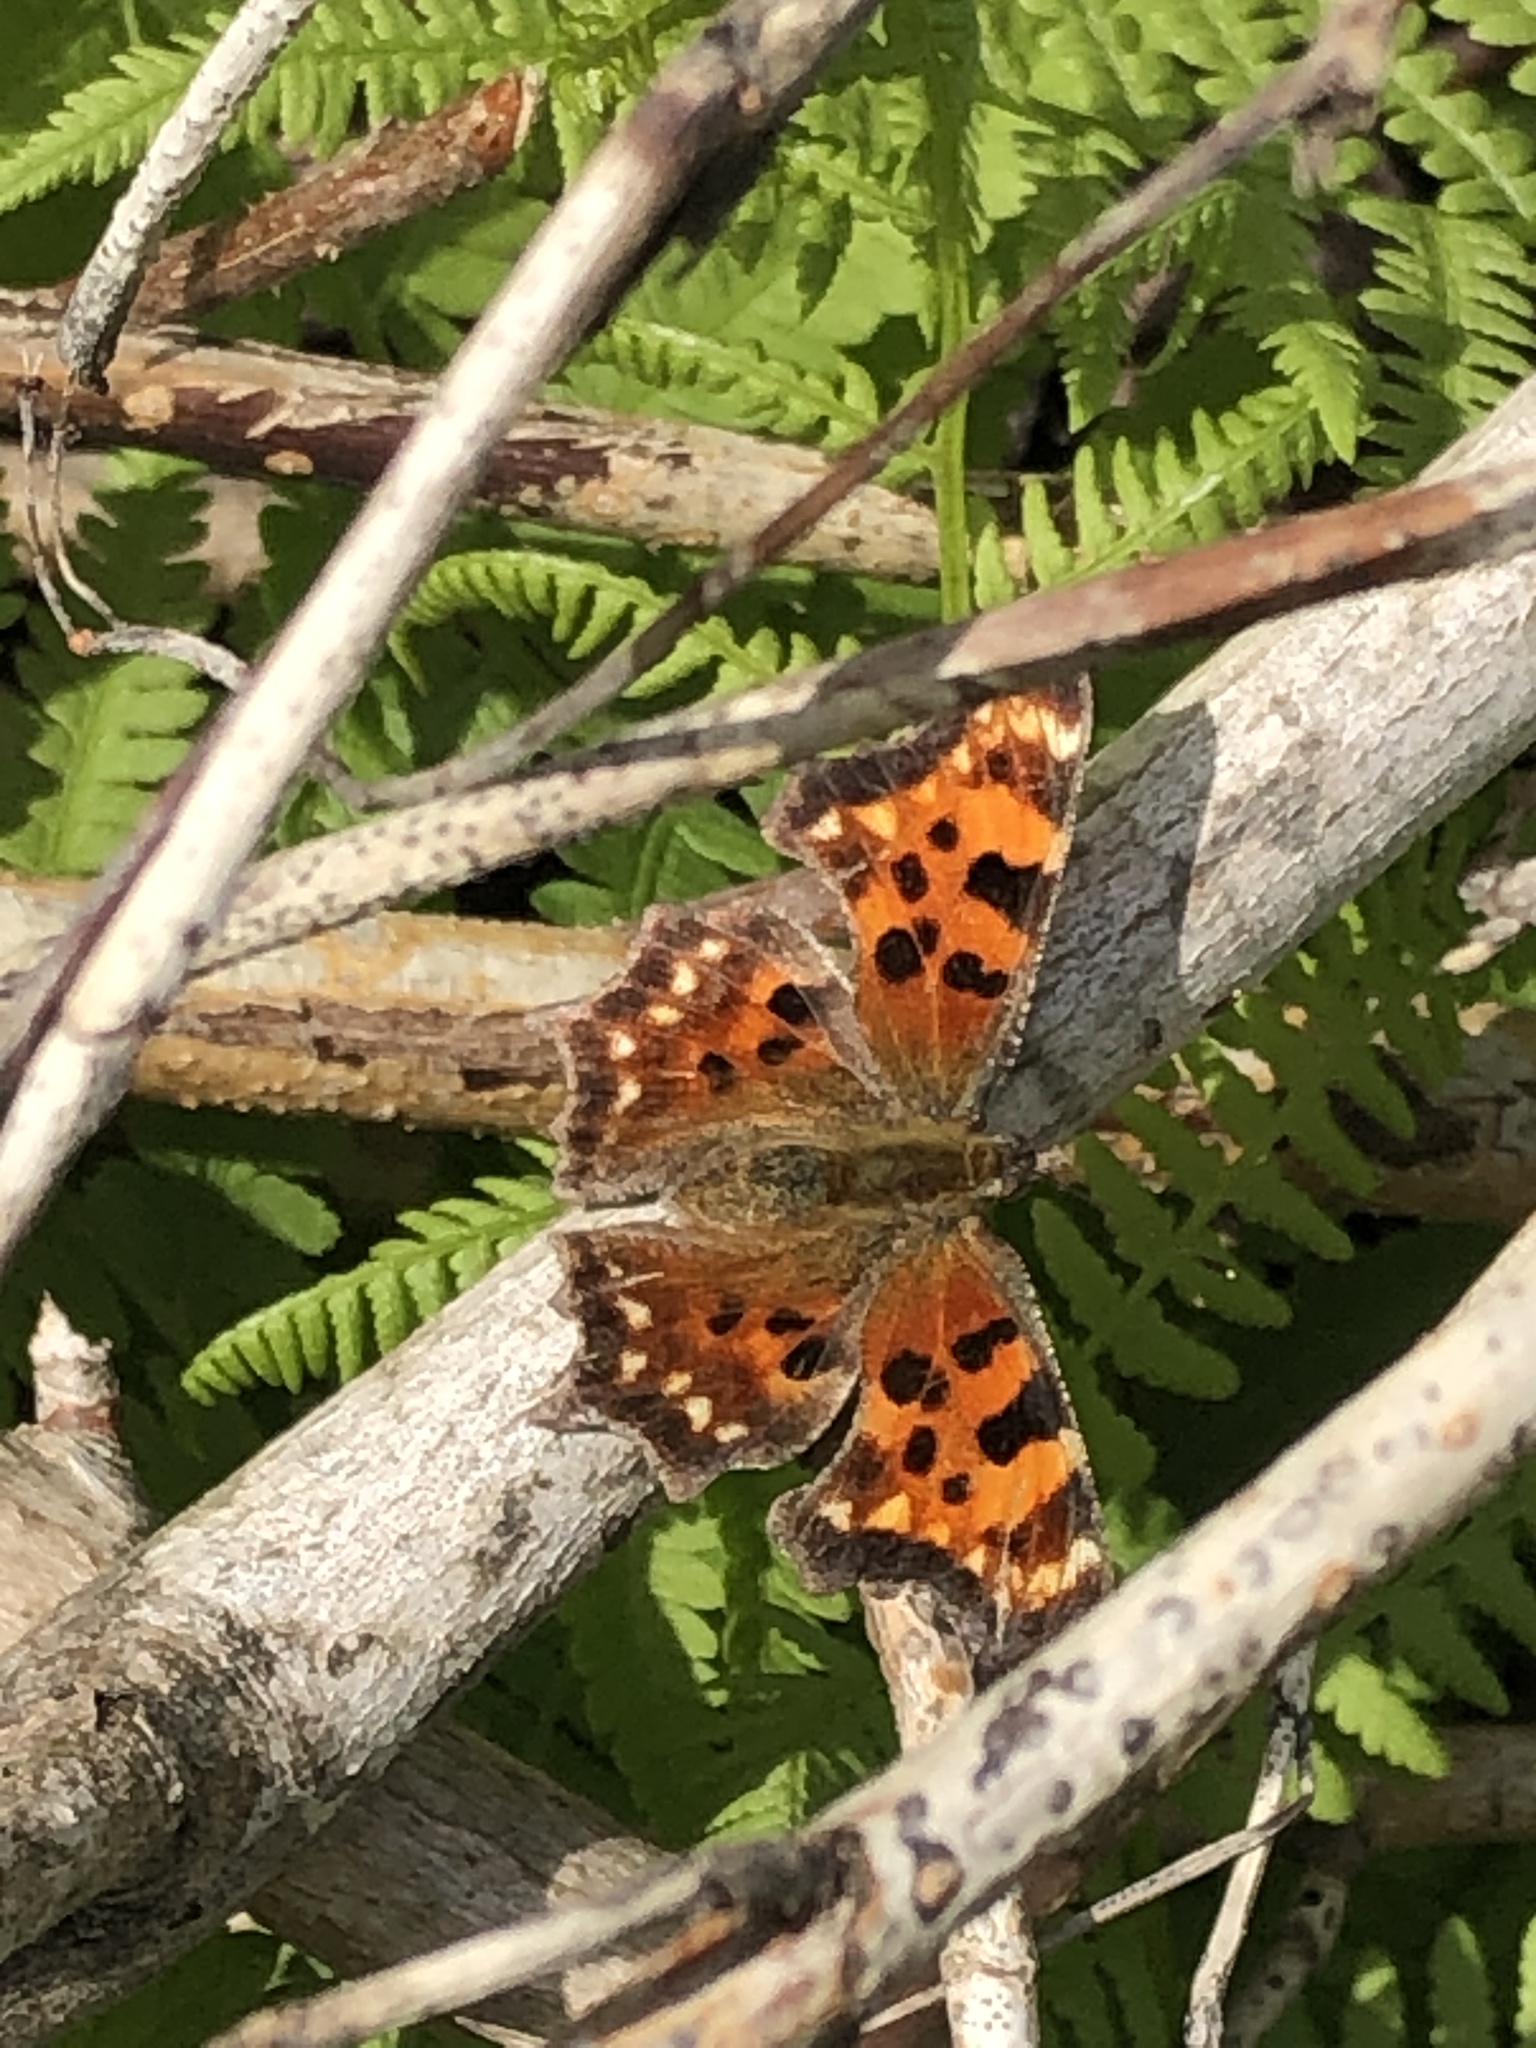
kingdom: Animalia
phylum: Arthropoda
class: Insecta
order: Lepidoptera
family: Nymphalidae
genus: Polygonia
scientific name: Polygonia faunus
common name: Green comma
